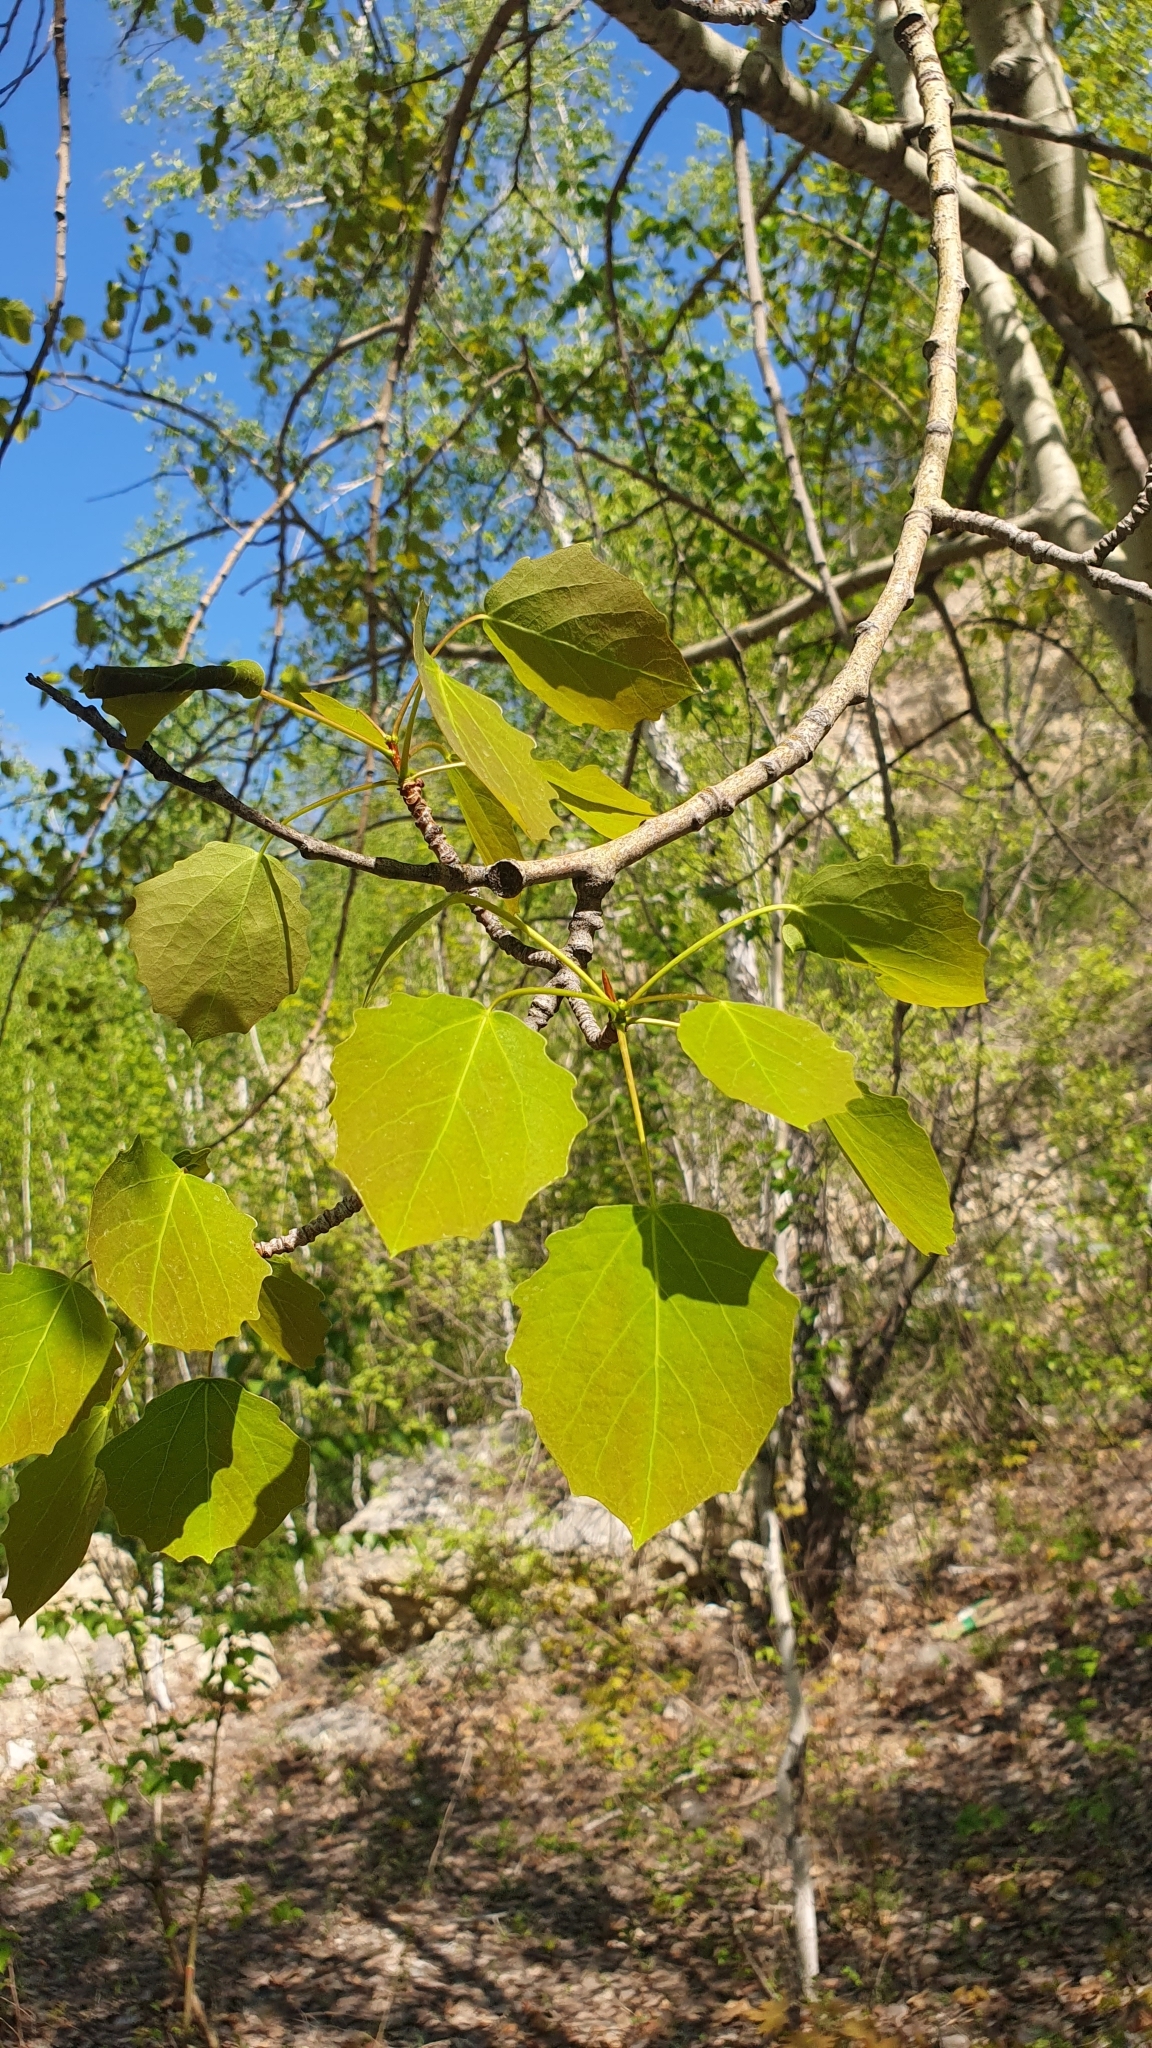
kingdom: Plantae
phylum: Tracheophyta
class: Magnoliopsida
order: Malpighiales
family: Salicaceae
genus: Populus
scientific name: Populus tremula
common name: European aspen
